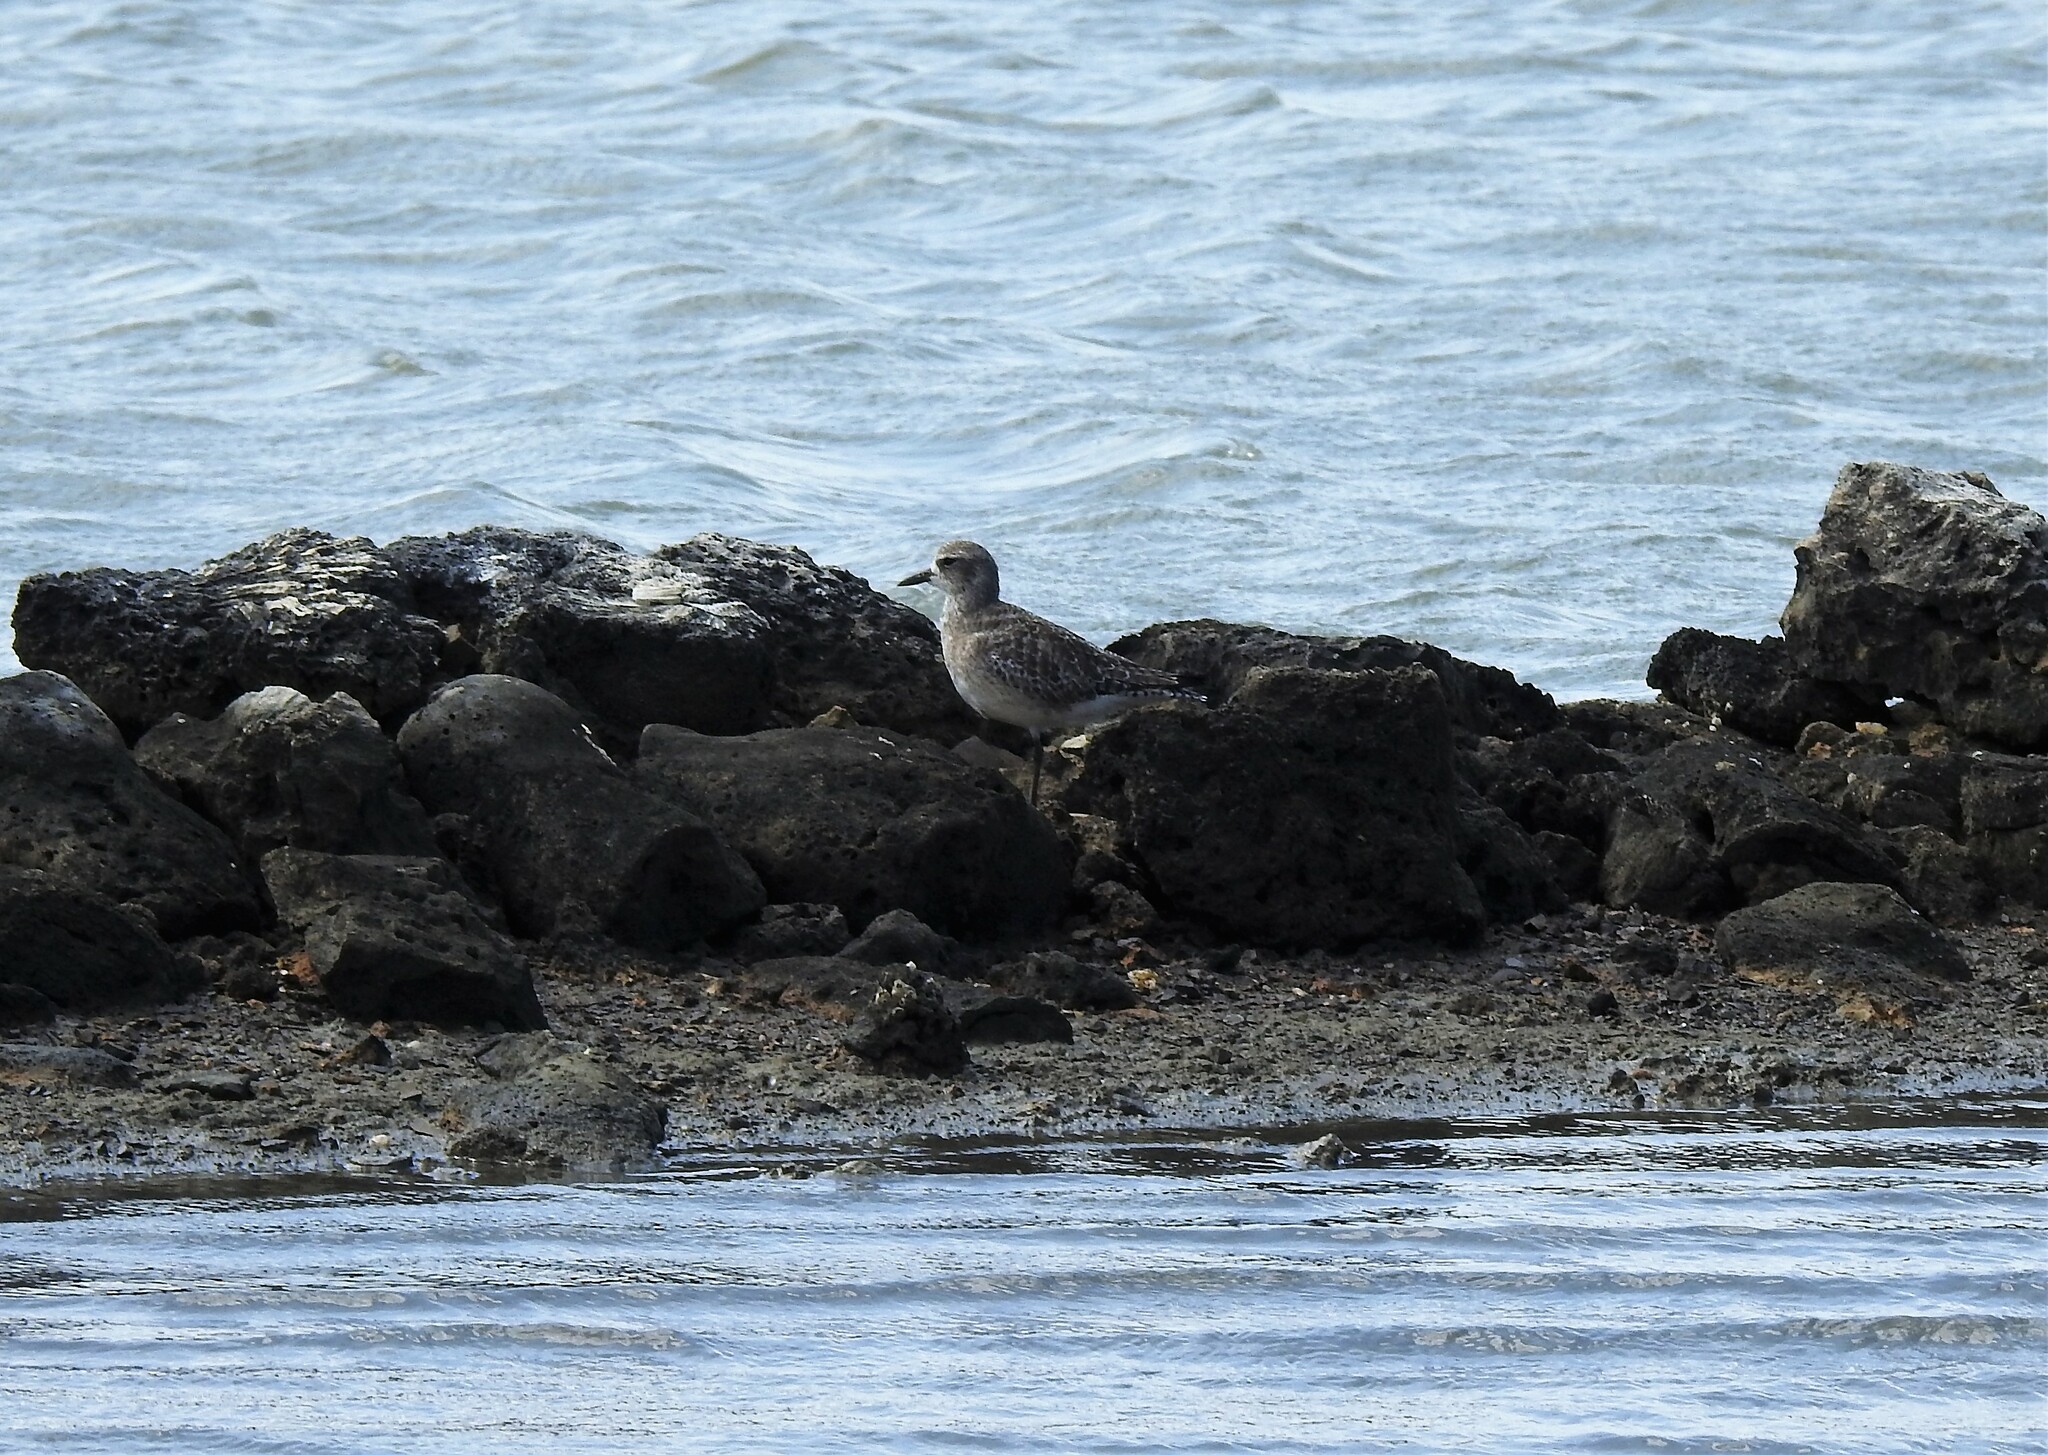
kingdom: Animalia
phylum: Chordata
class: Aves
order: Charadriiformes
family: Charadriidae
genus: Pluvialis
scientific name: Pluvialis squatarola
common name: Grey plover
